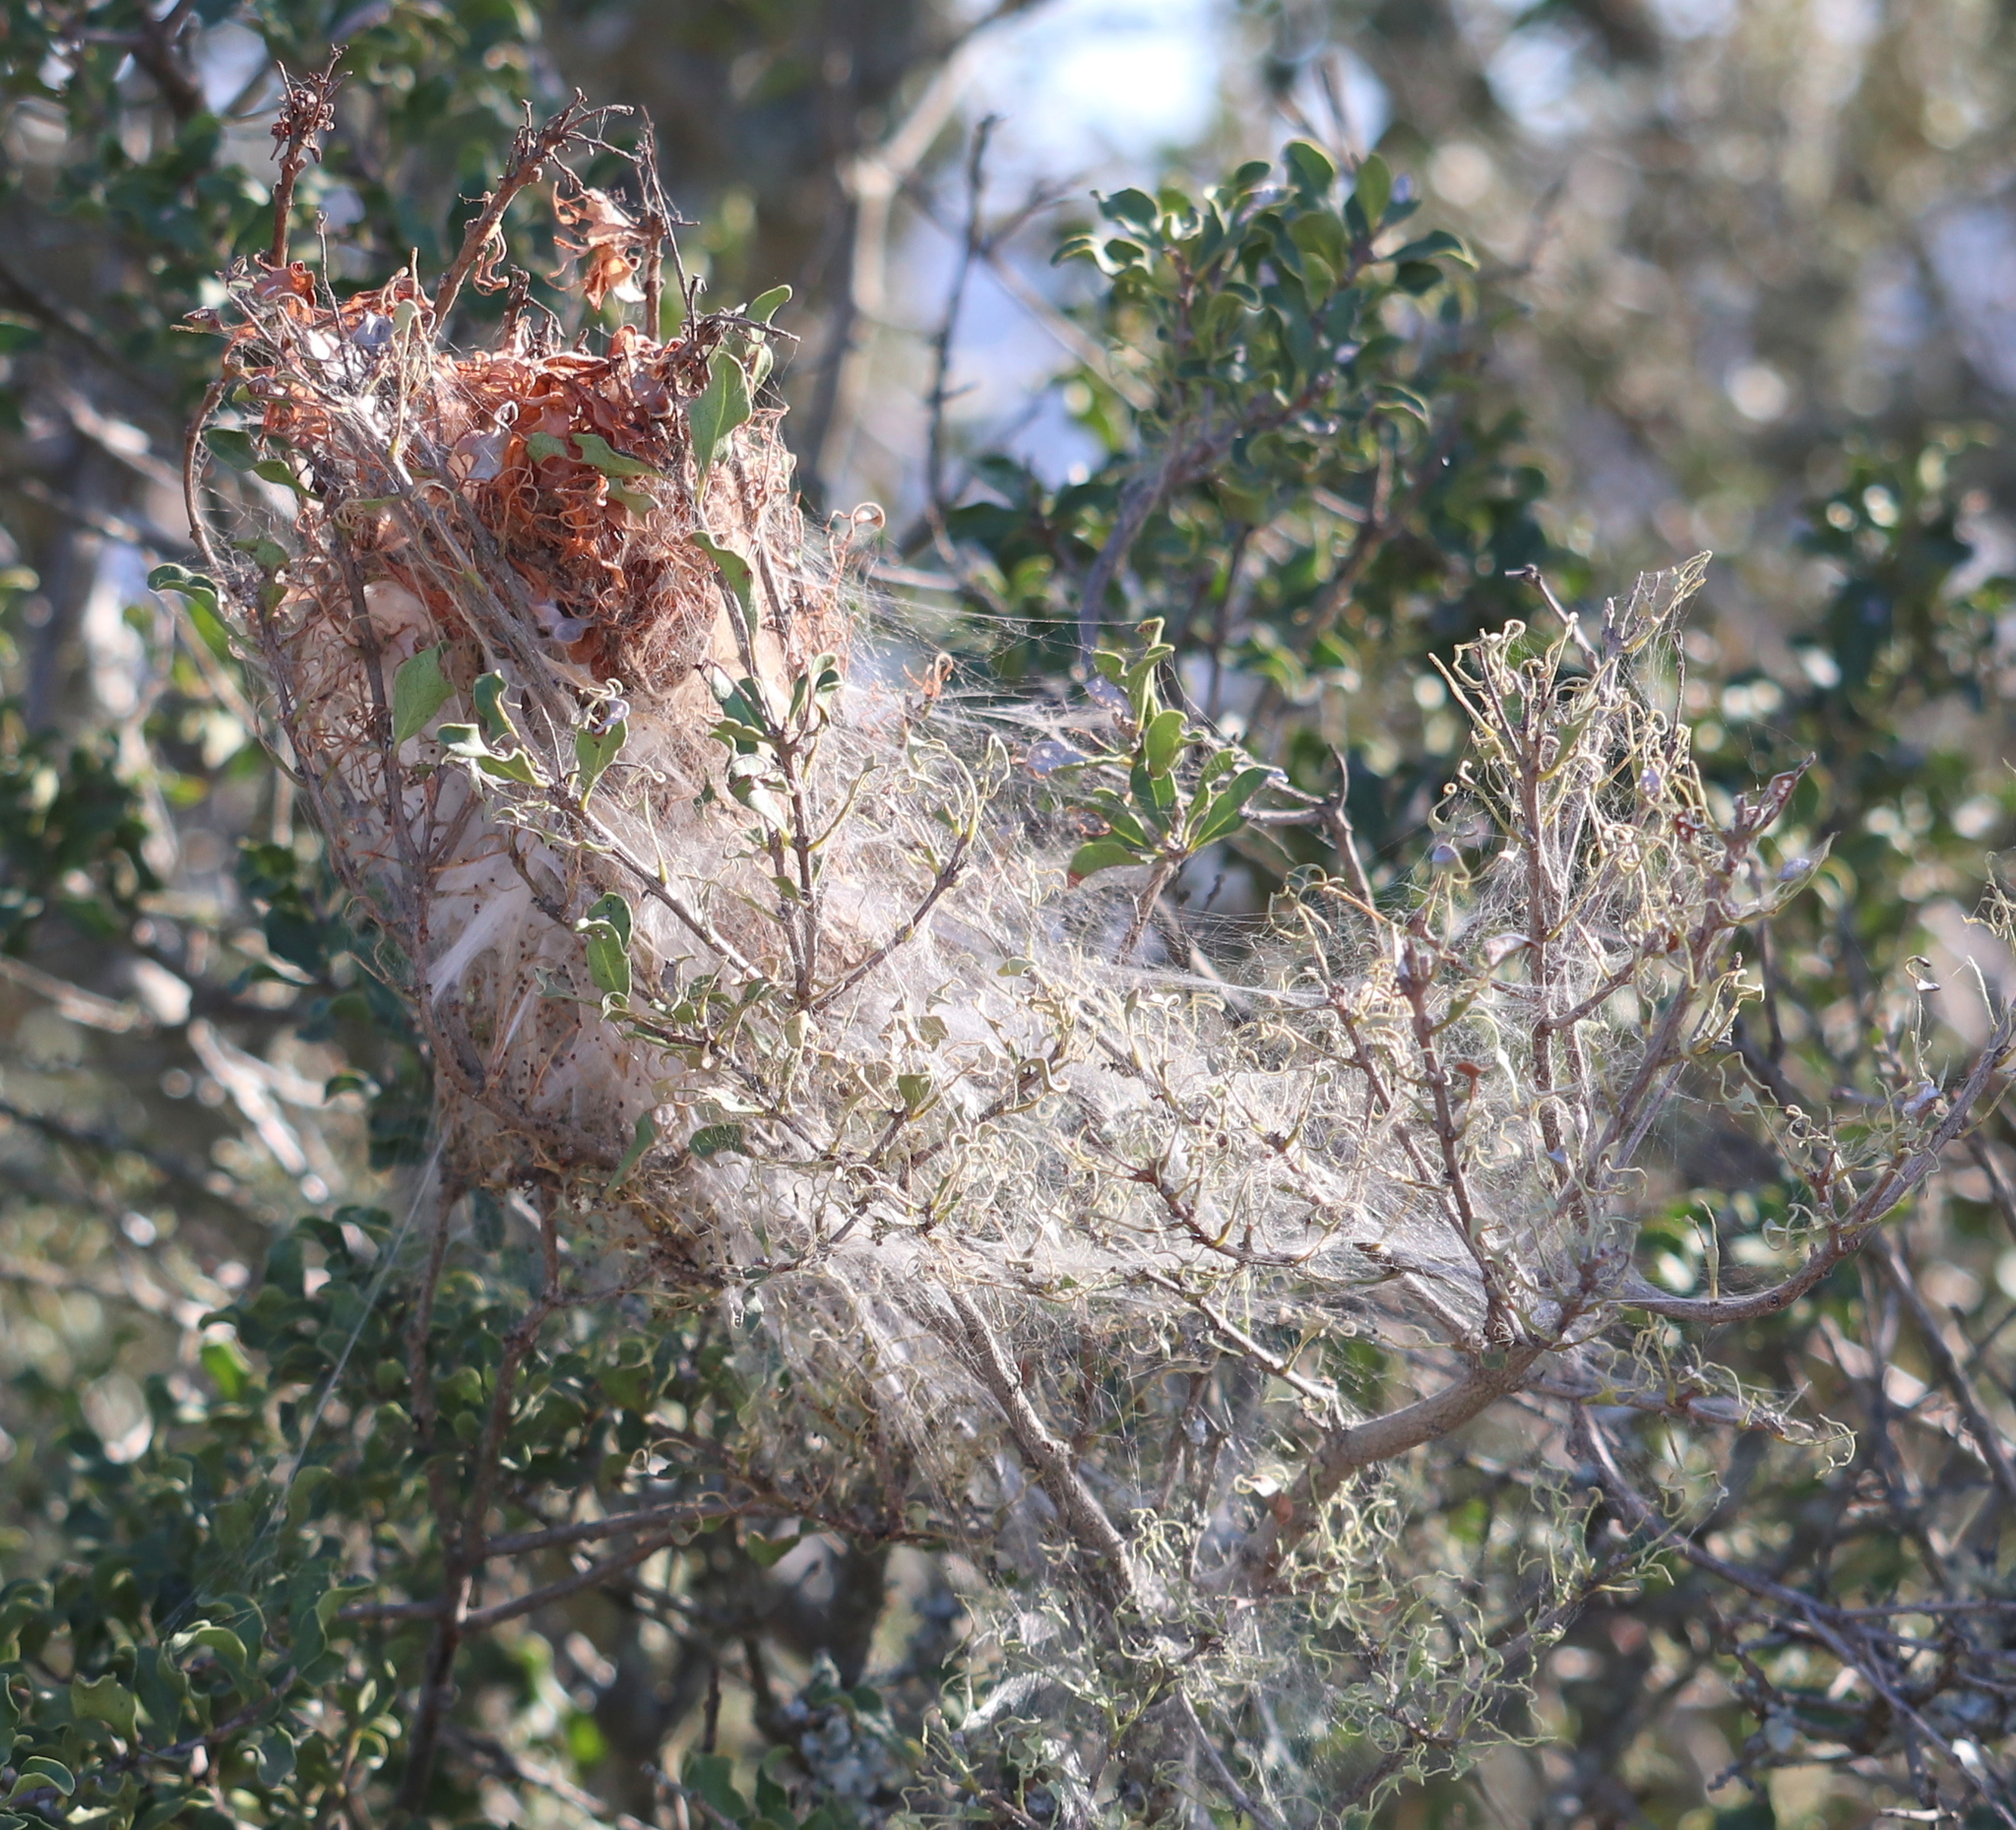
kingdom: Animalia
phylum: Arthropoda
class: Arachnida
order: Araneae
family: Eresidae
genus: Stegodyphus
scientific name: Stegodyphus dumicola
